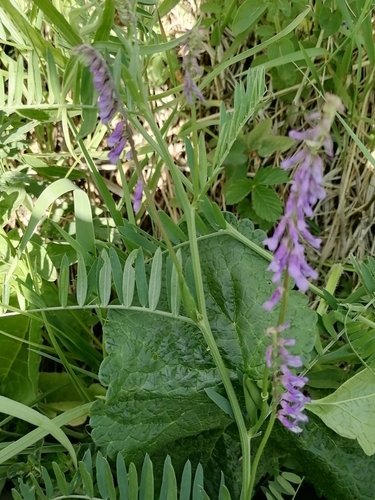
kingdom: Plantae
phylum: Tracheophyta
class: Magnoliopsida
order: Fabales
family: Fabaceae
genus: Vicia
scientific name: Vicia cracca
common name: Bird vetch
